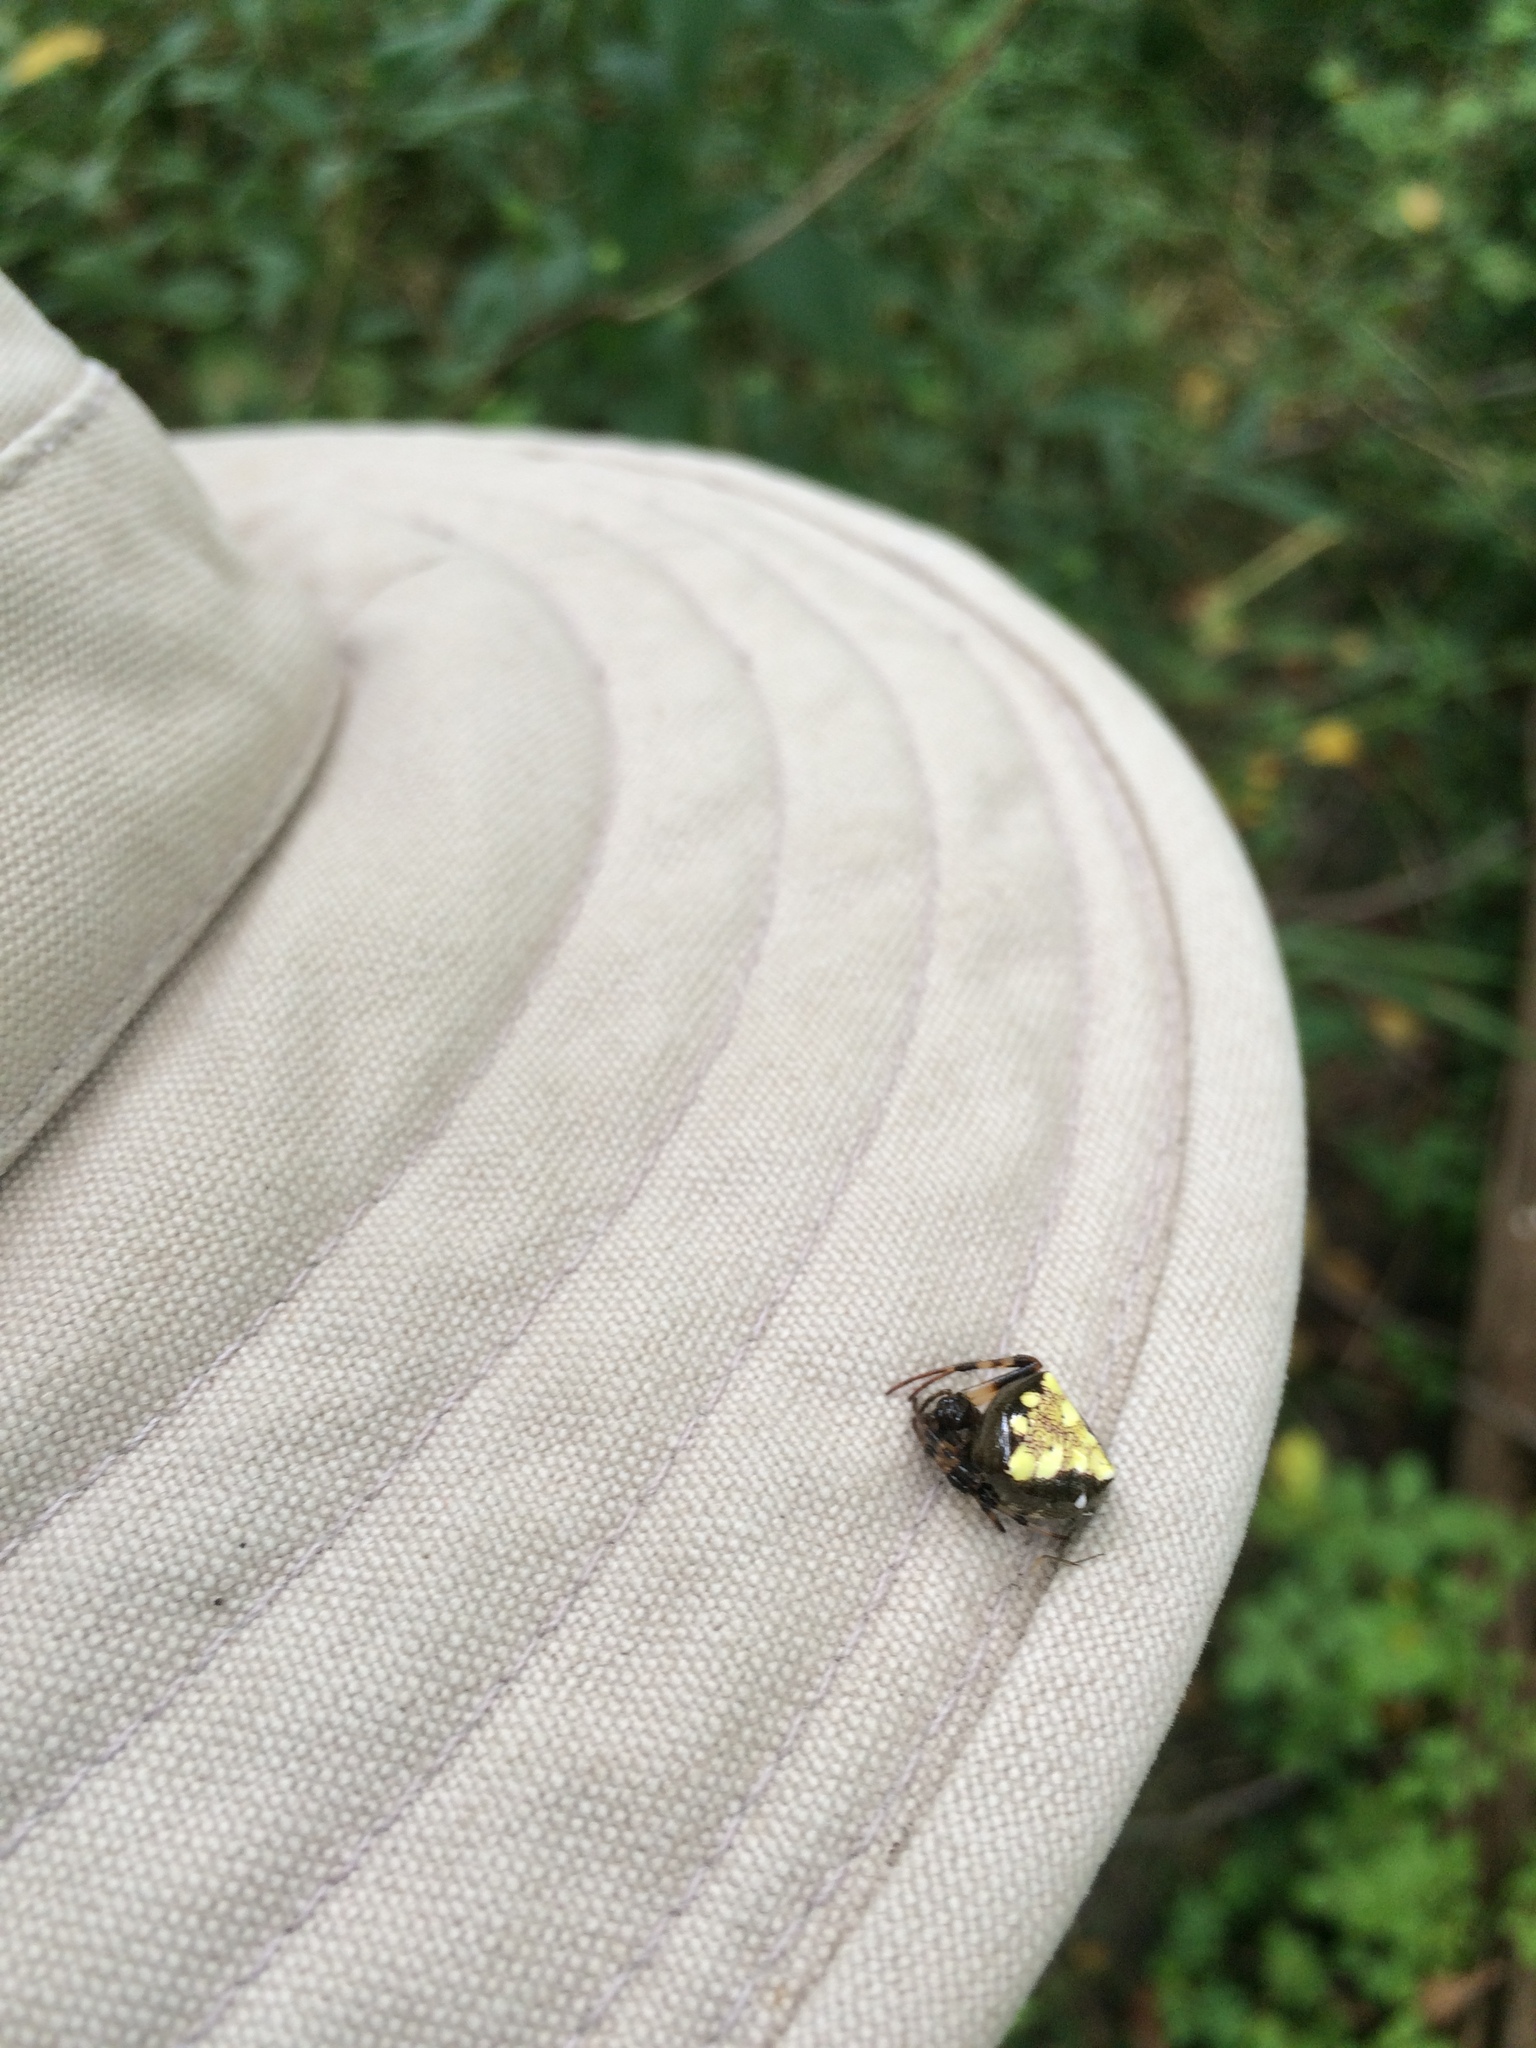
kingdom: Animalia
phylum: Arthropoda
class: Arachnida
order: Araneae
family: Araneidae
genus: Verrucosa
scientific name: Verrucosa arenata
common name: Orb weavers
